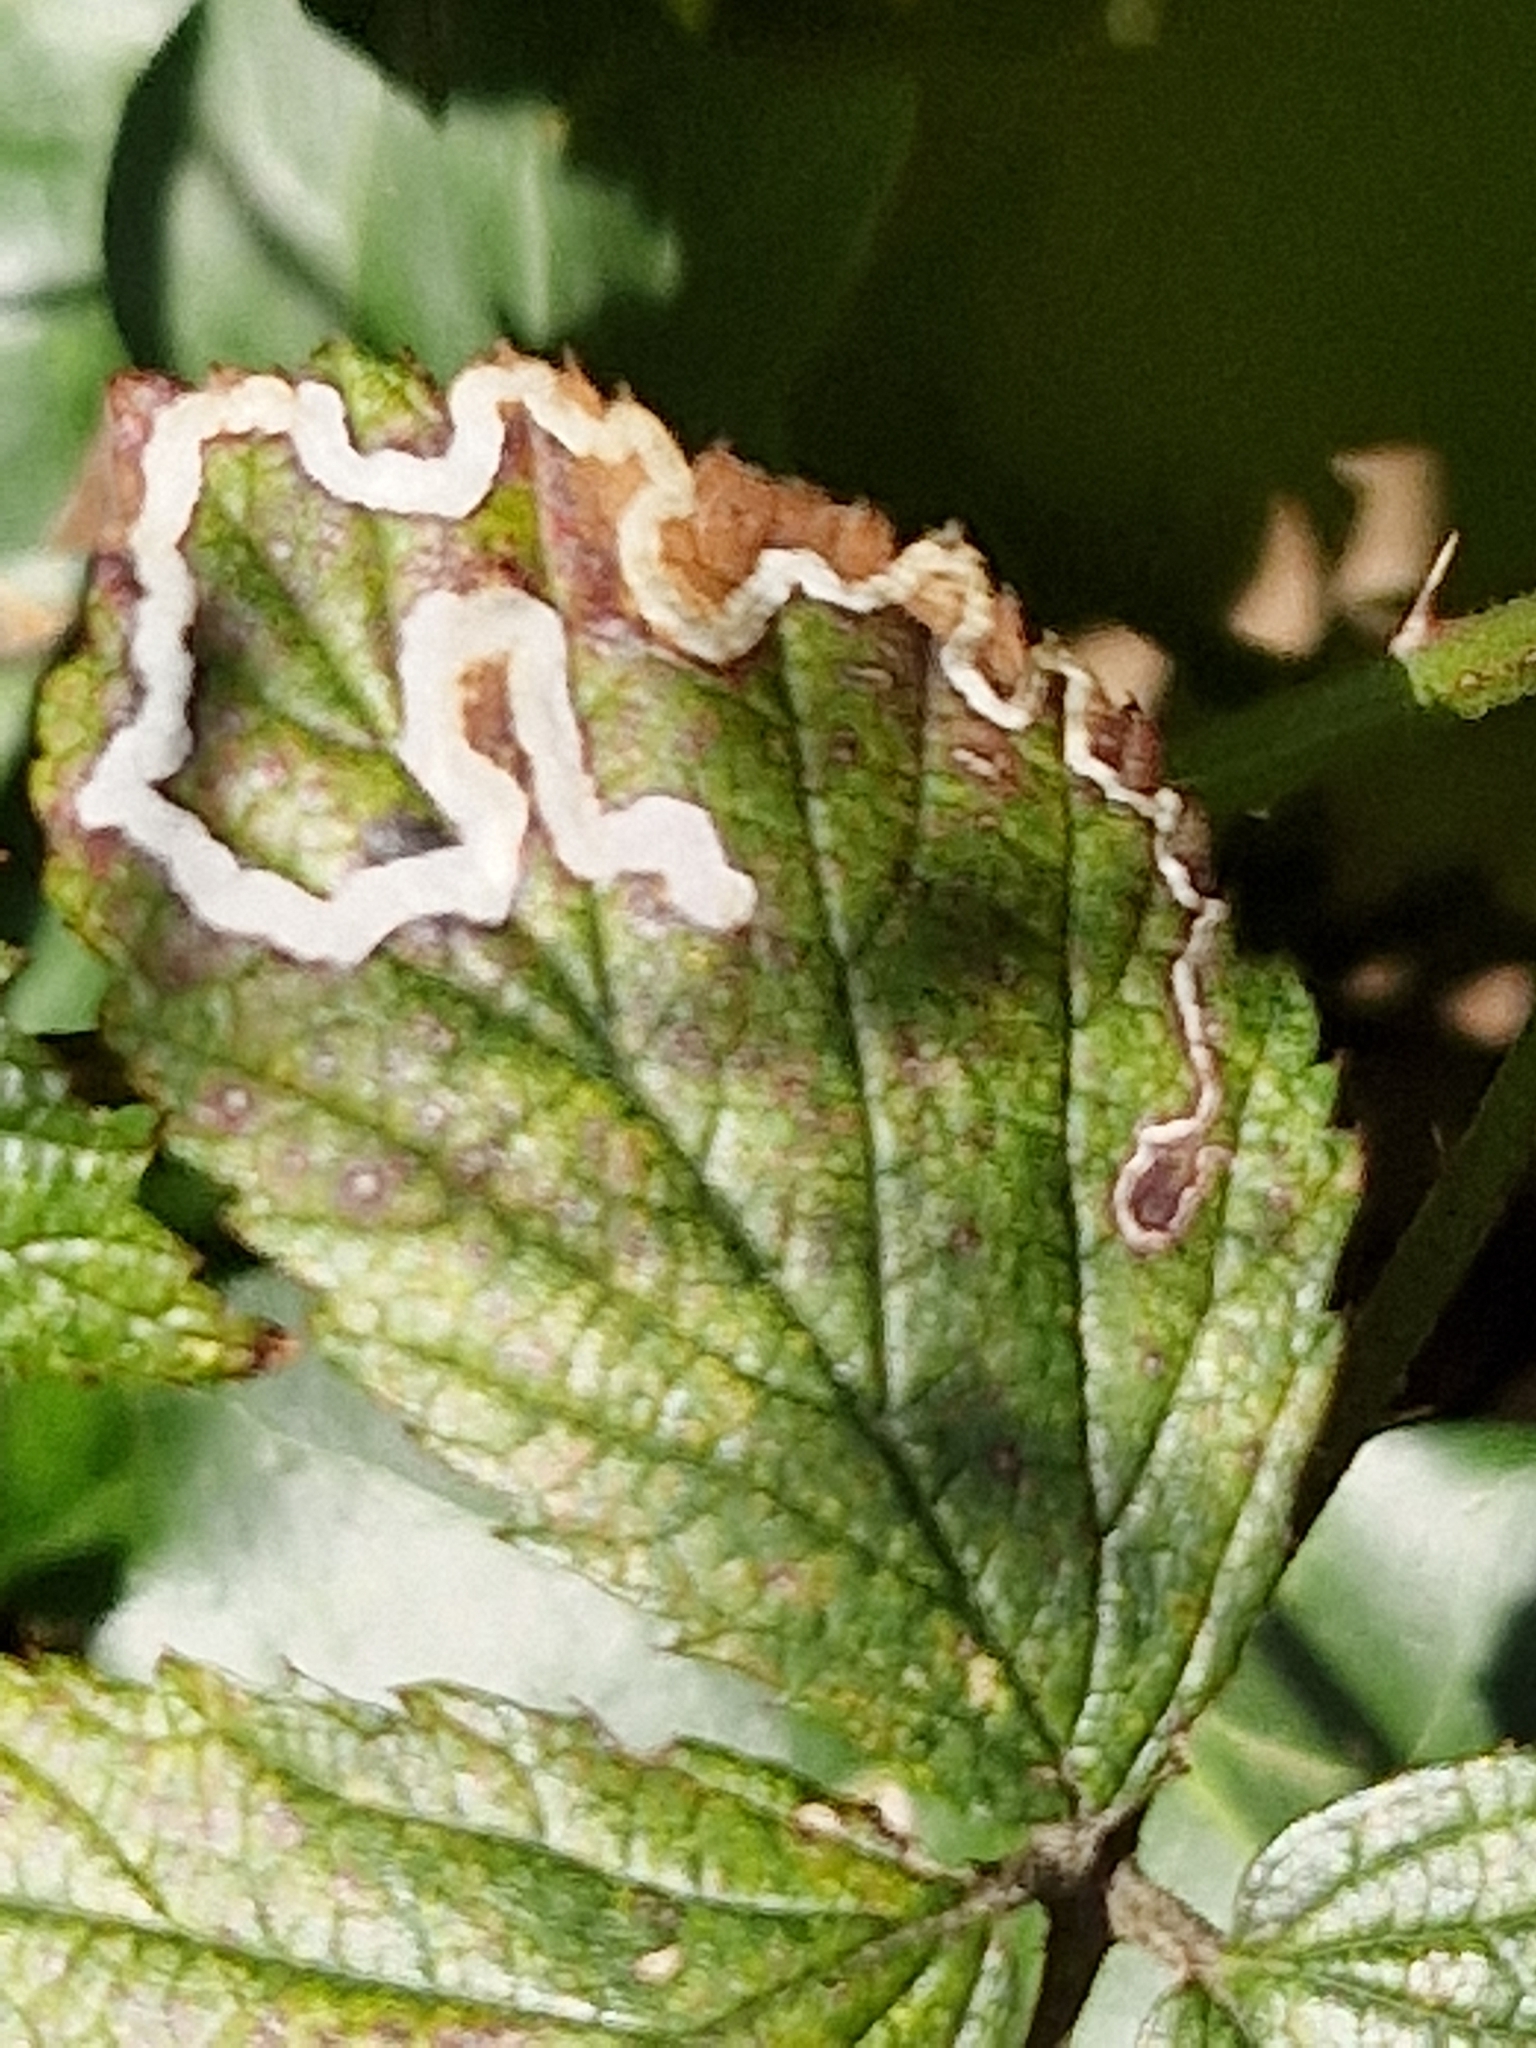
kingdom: Animalia
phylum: Arthropoda
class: Insecta
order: Lepidoptera
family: Nepticulidae
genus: Stigmella
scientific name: Stigmella aurella
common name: Golden pigmy
